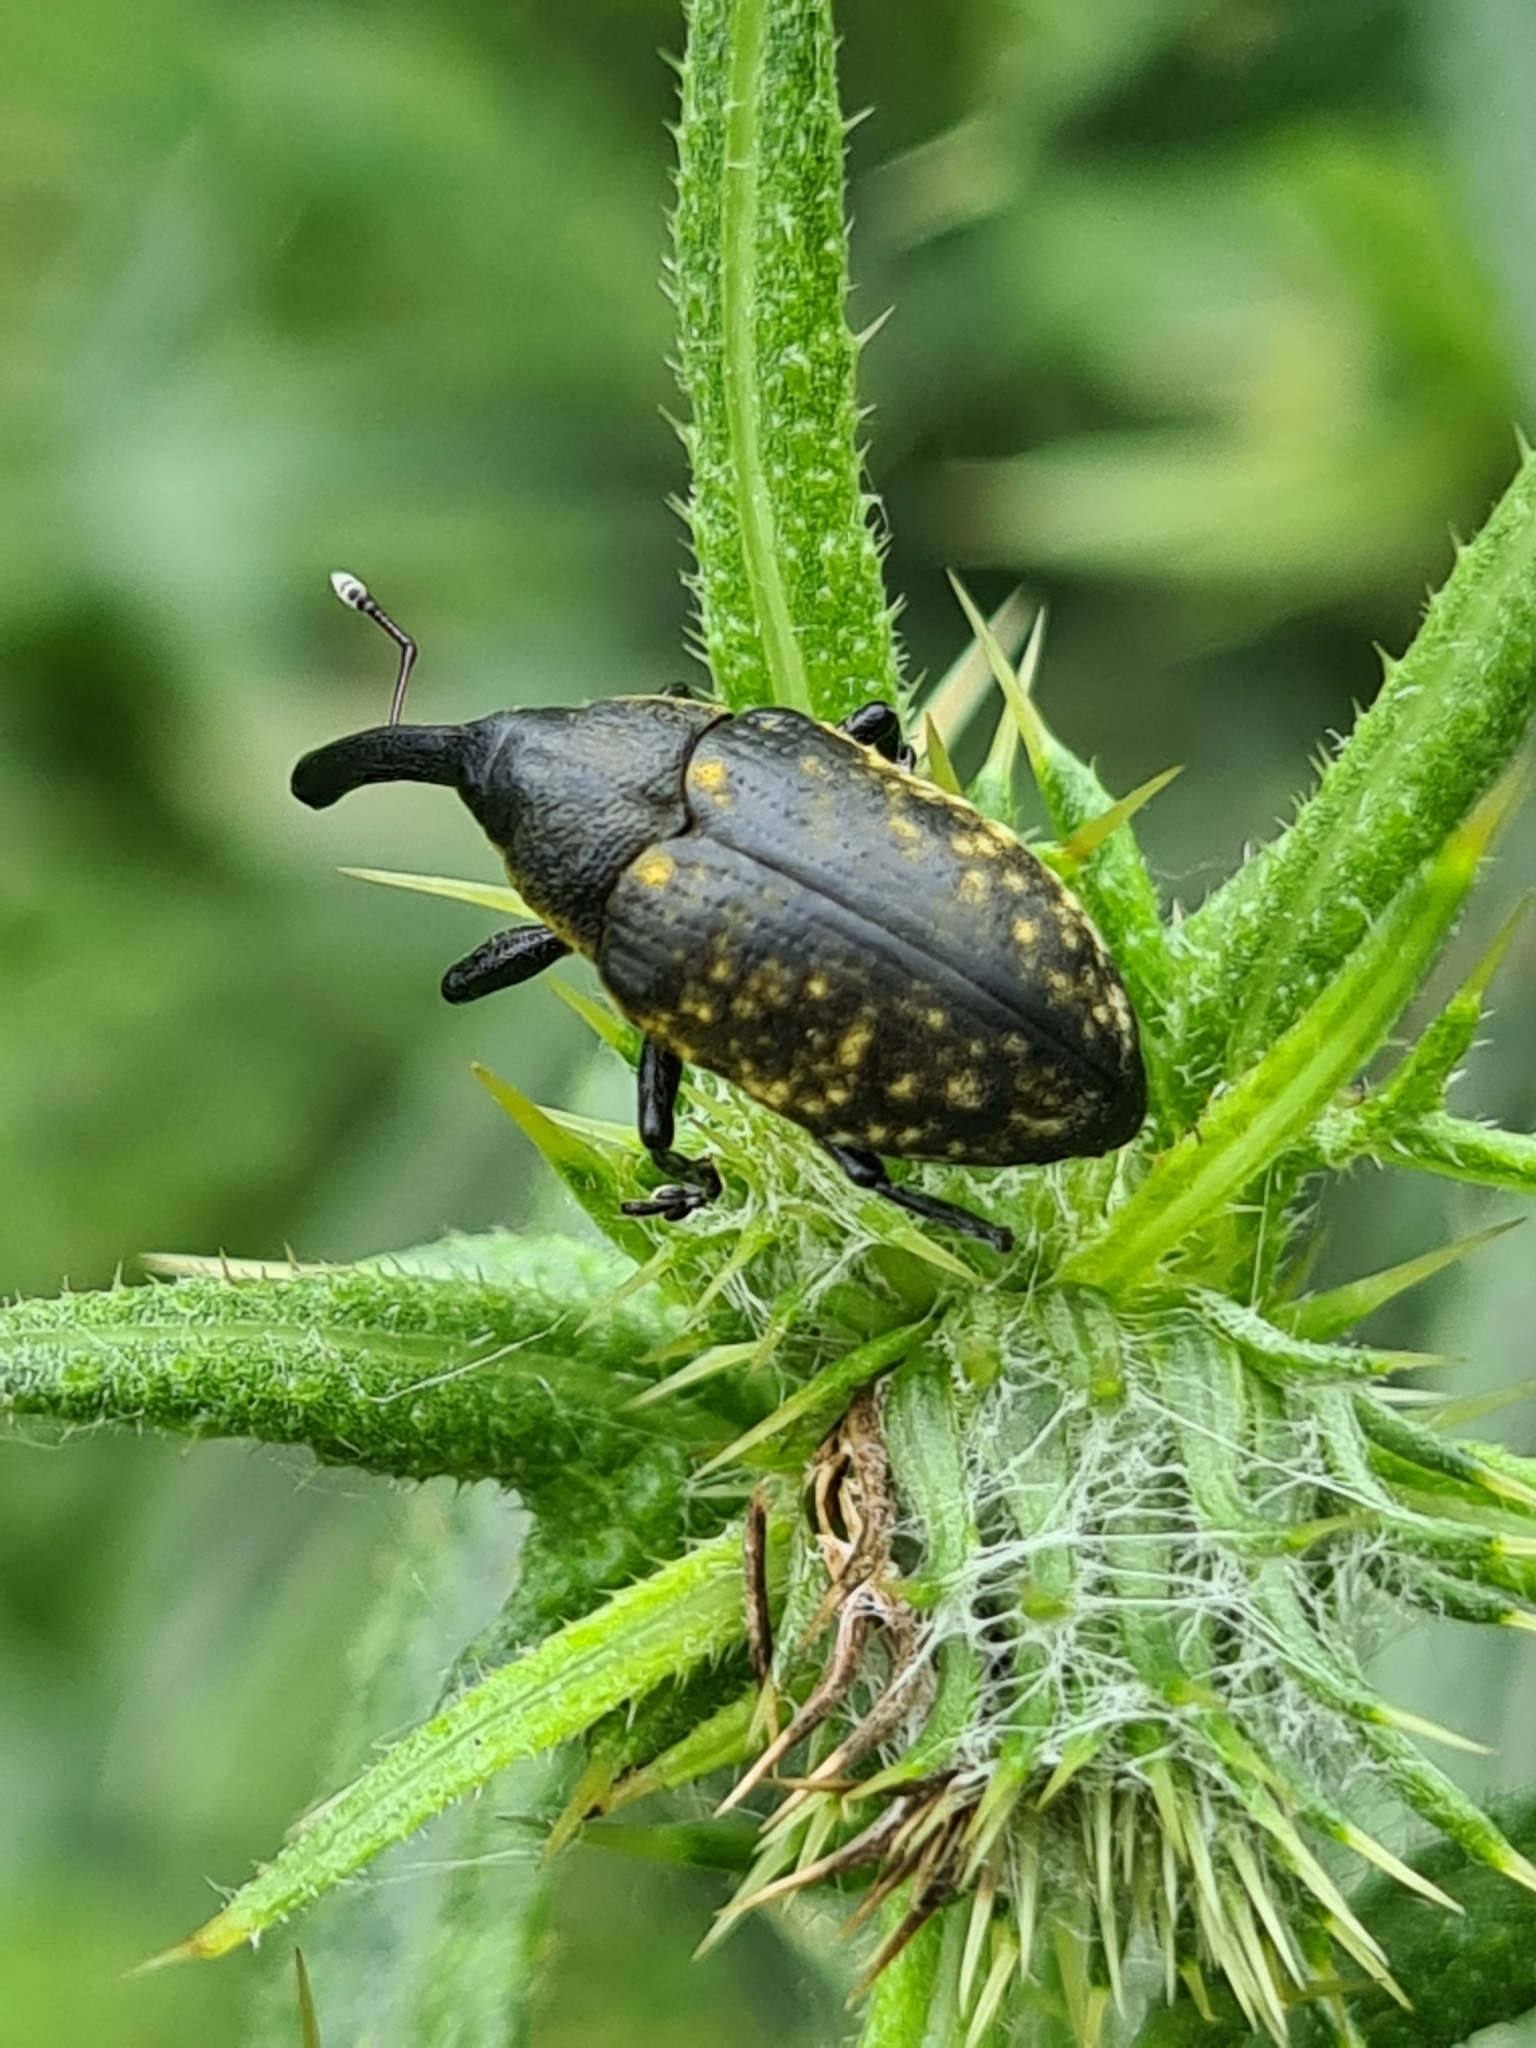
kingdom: Animalia
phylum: Arthropoda
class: Insecta
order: Coleoptera
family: Curculionidae
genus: Larinus
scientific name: Larinus sturnus
